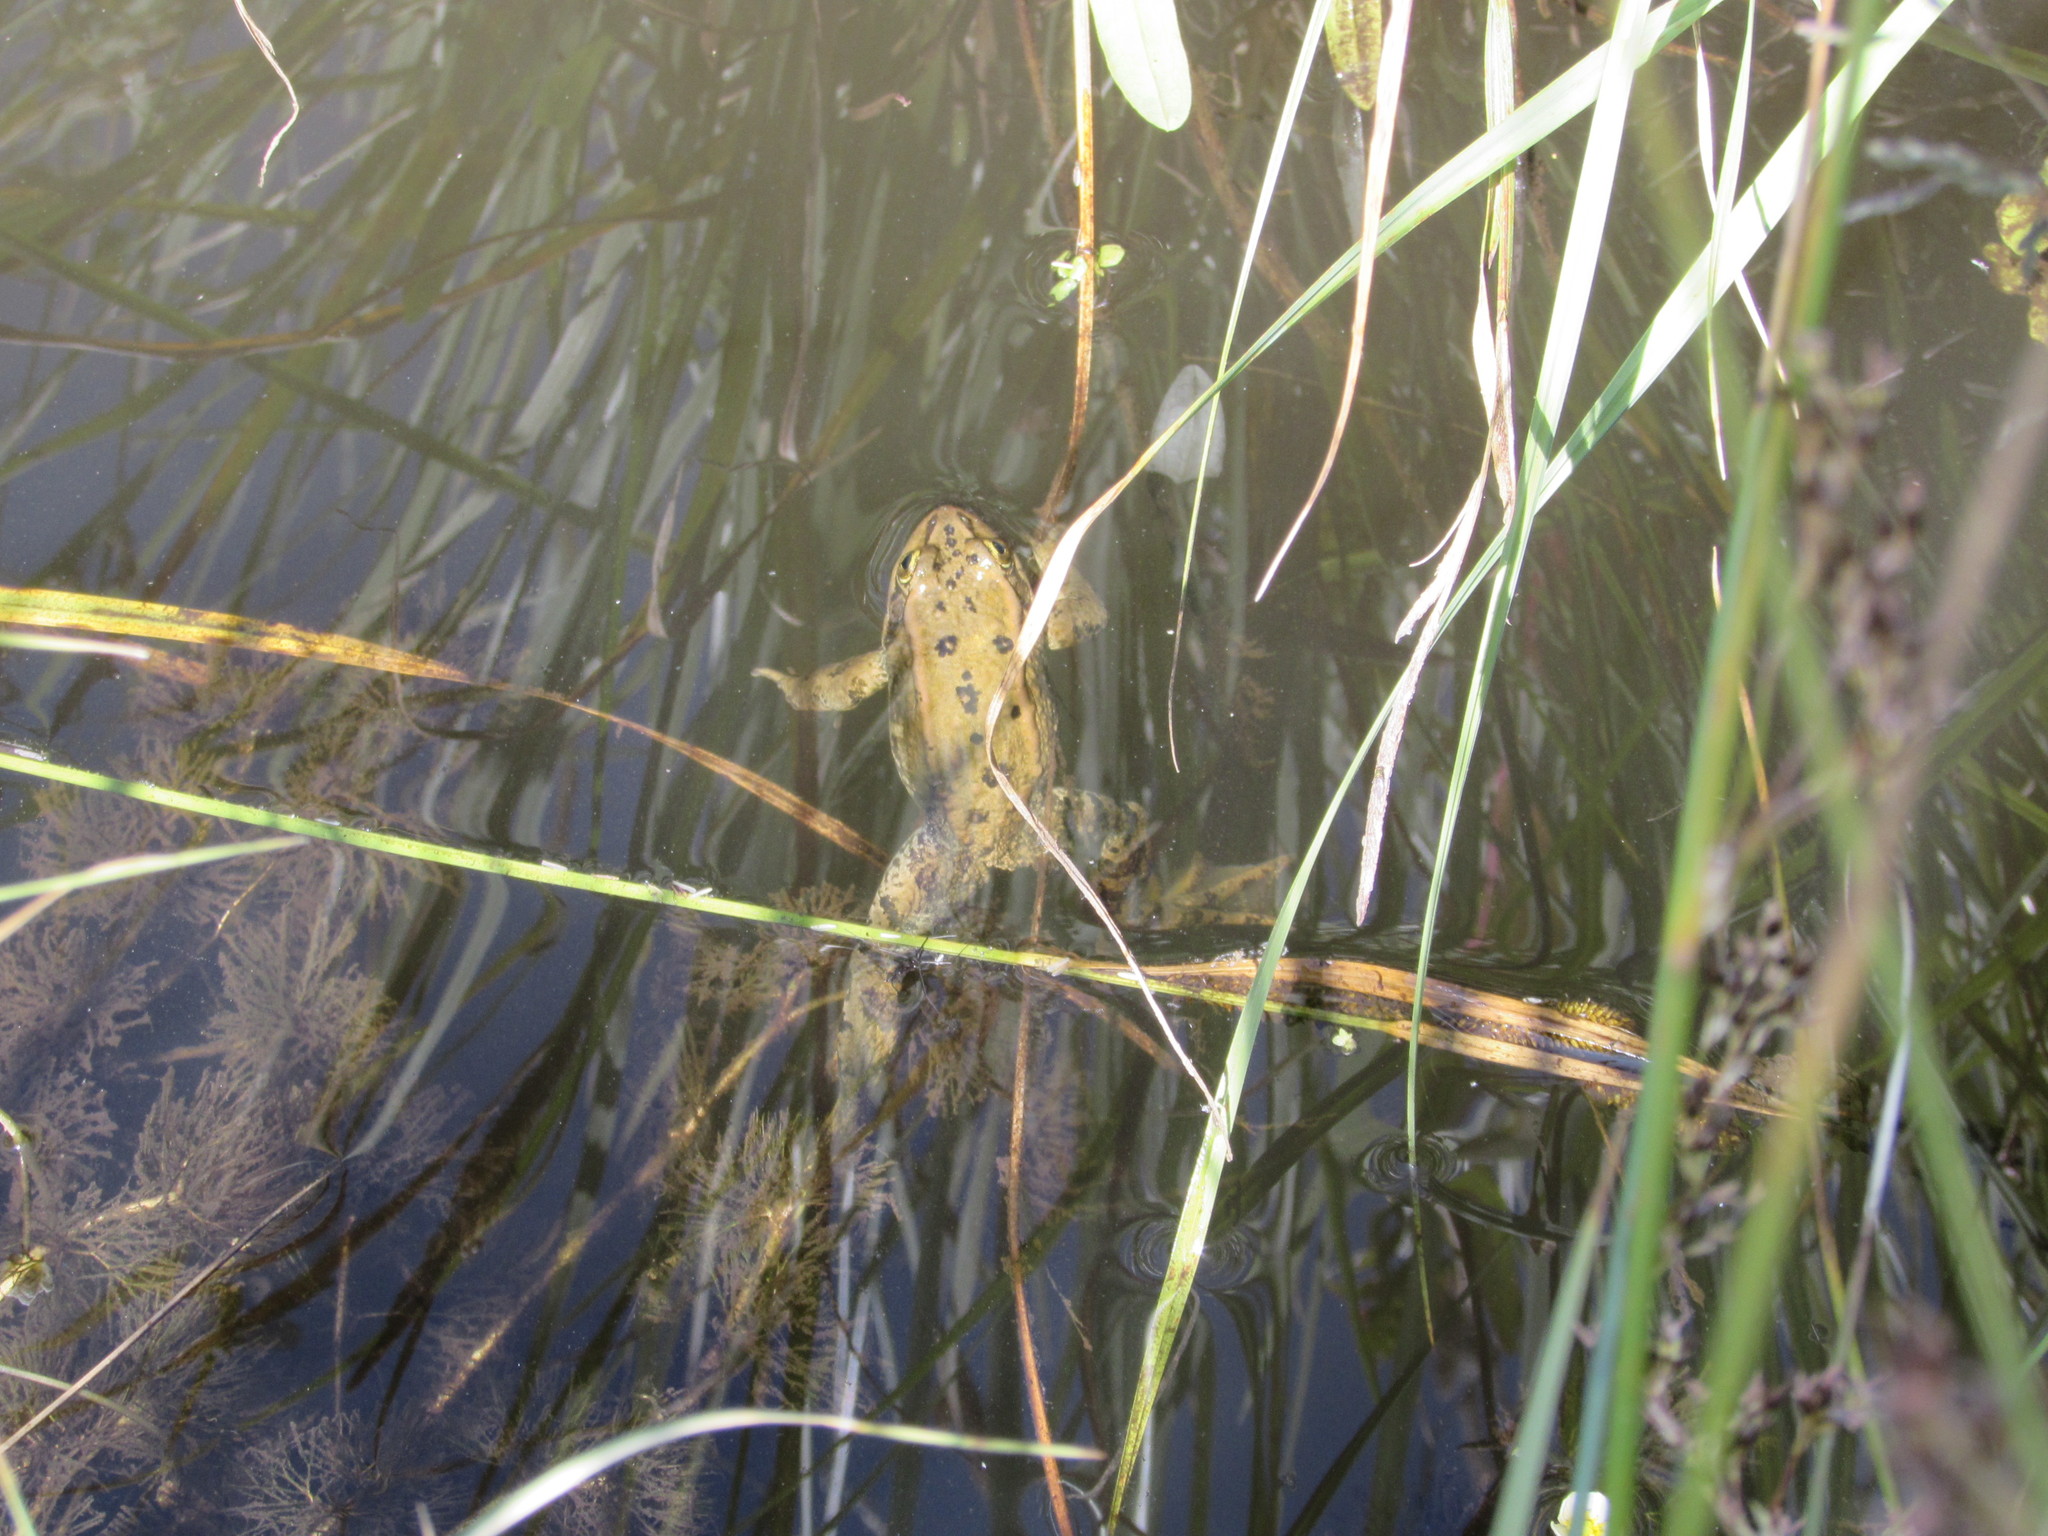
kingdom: Animalia
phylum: Chordata
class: Amphibia
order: Anura
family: Ranidae
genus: Rana
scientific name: Rana luteiventris
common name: Columbia spotted frog
